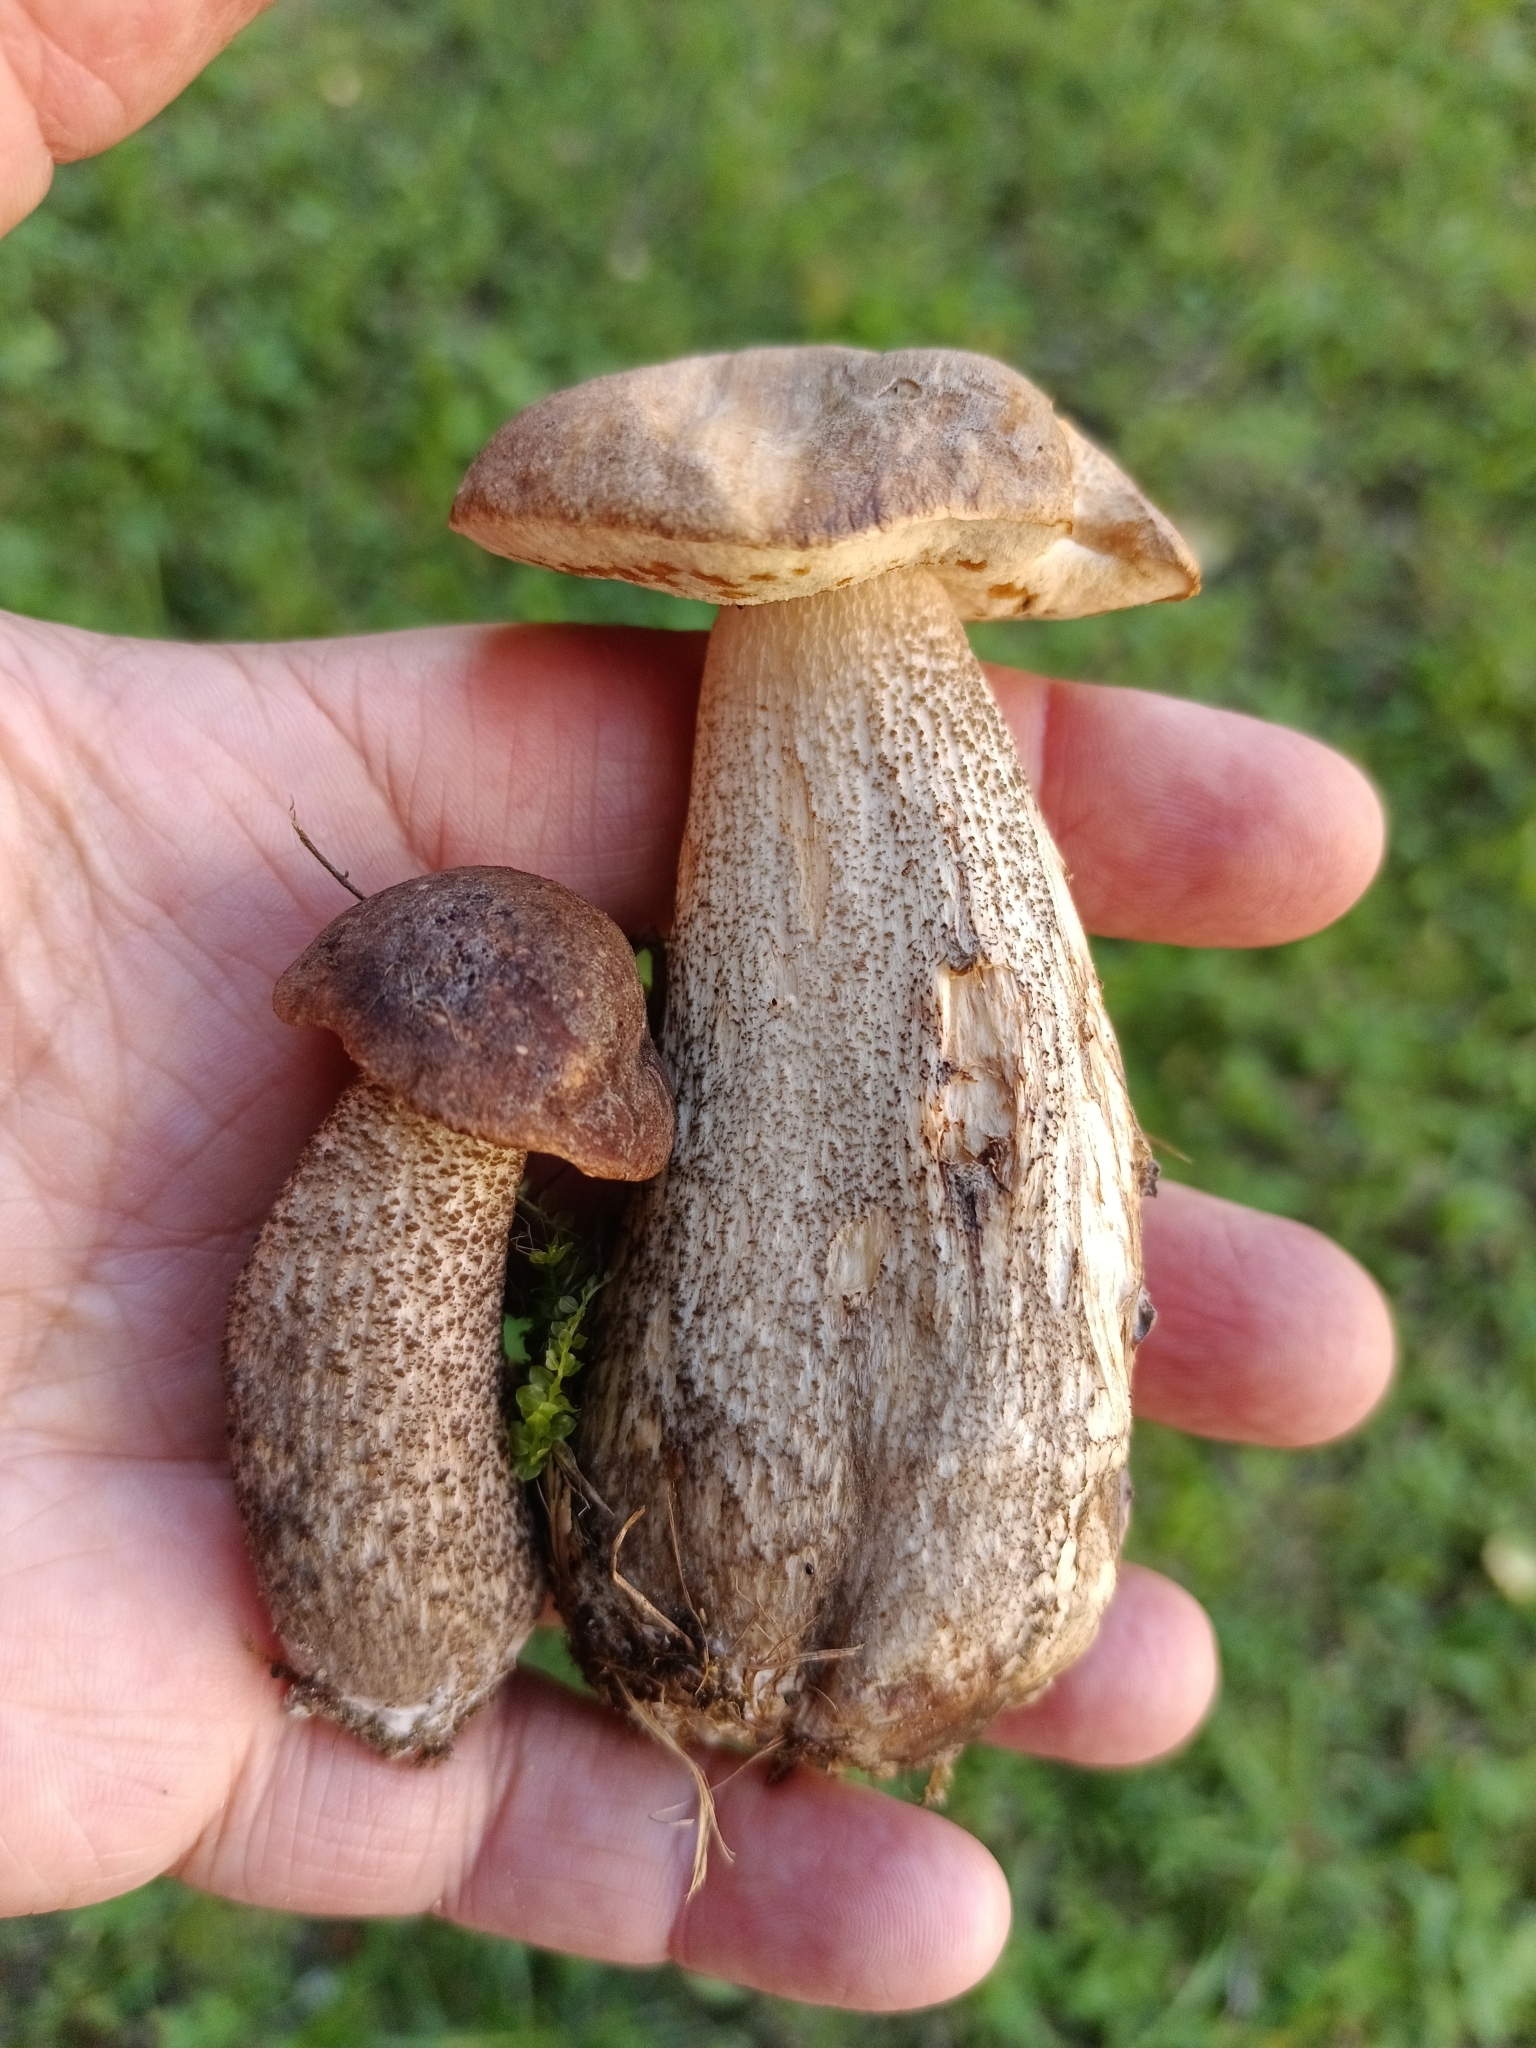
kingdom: Fungi
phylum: Basidiomycota
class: Agaricomycetes
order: Boletales
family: Boletaceae
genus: Leccinum
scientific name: Leccinum scabrum
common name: Blushing bolete
